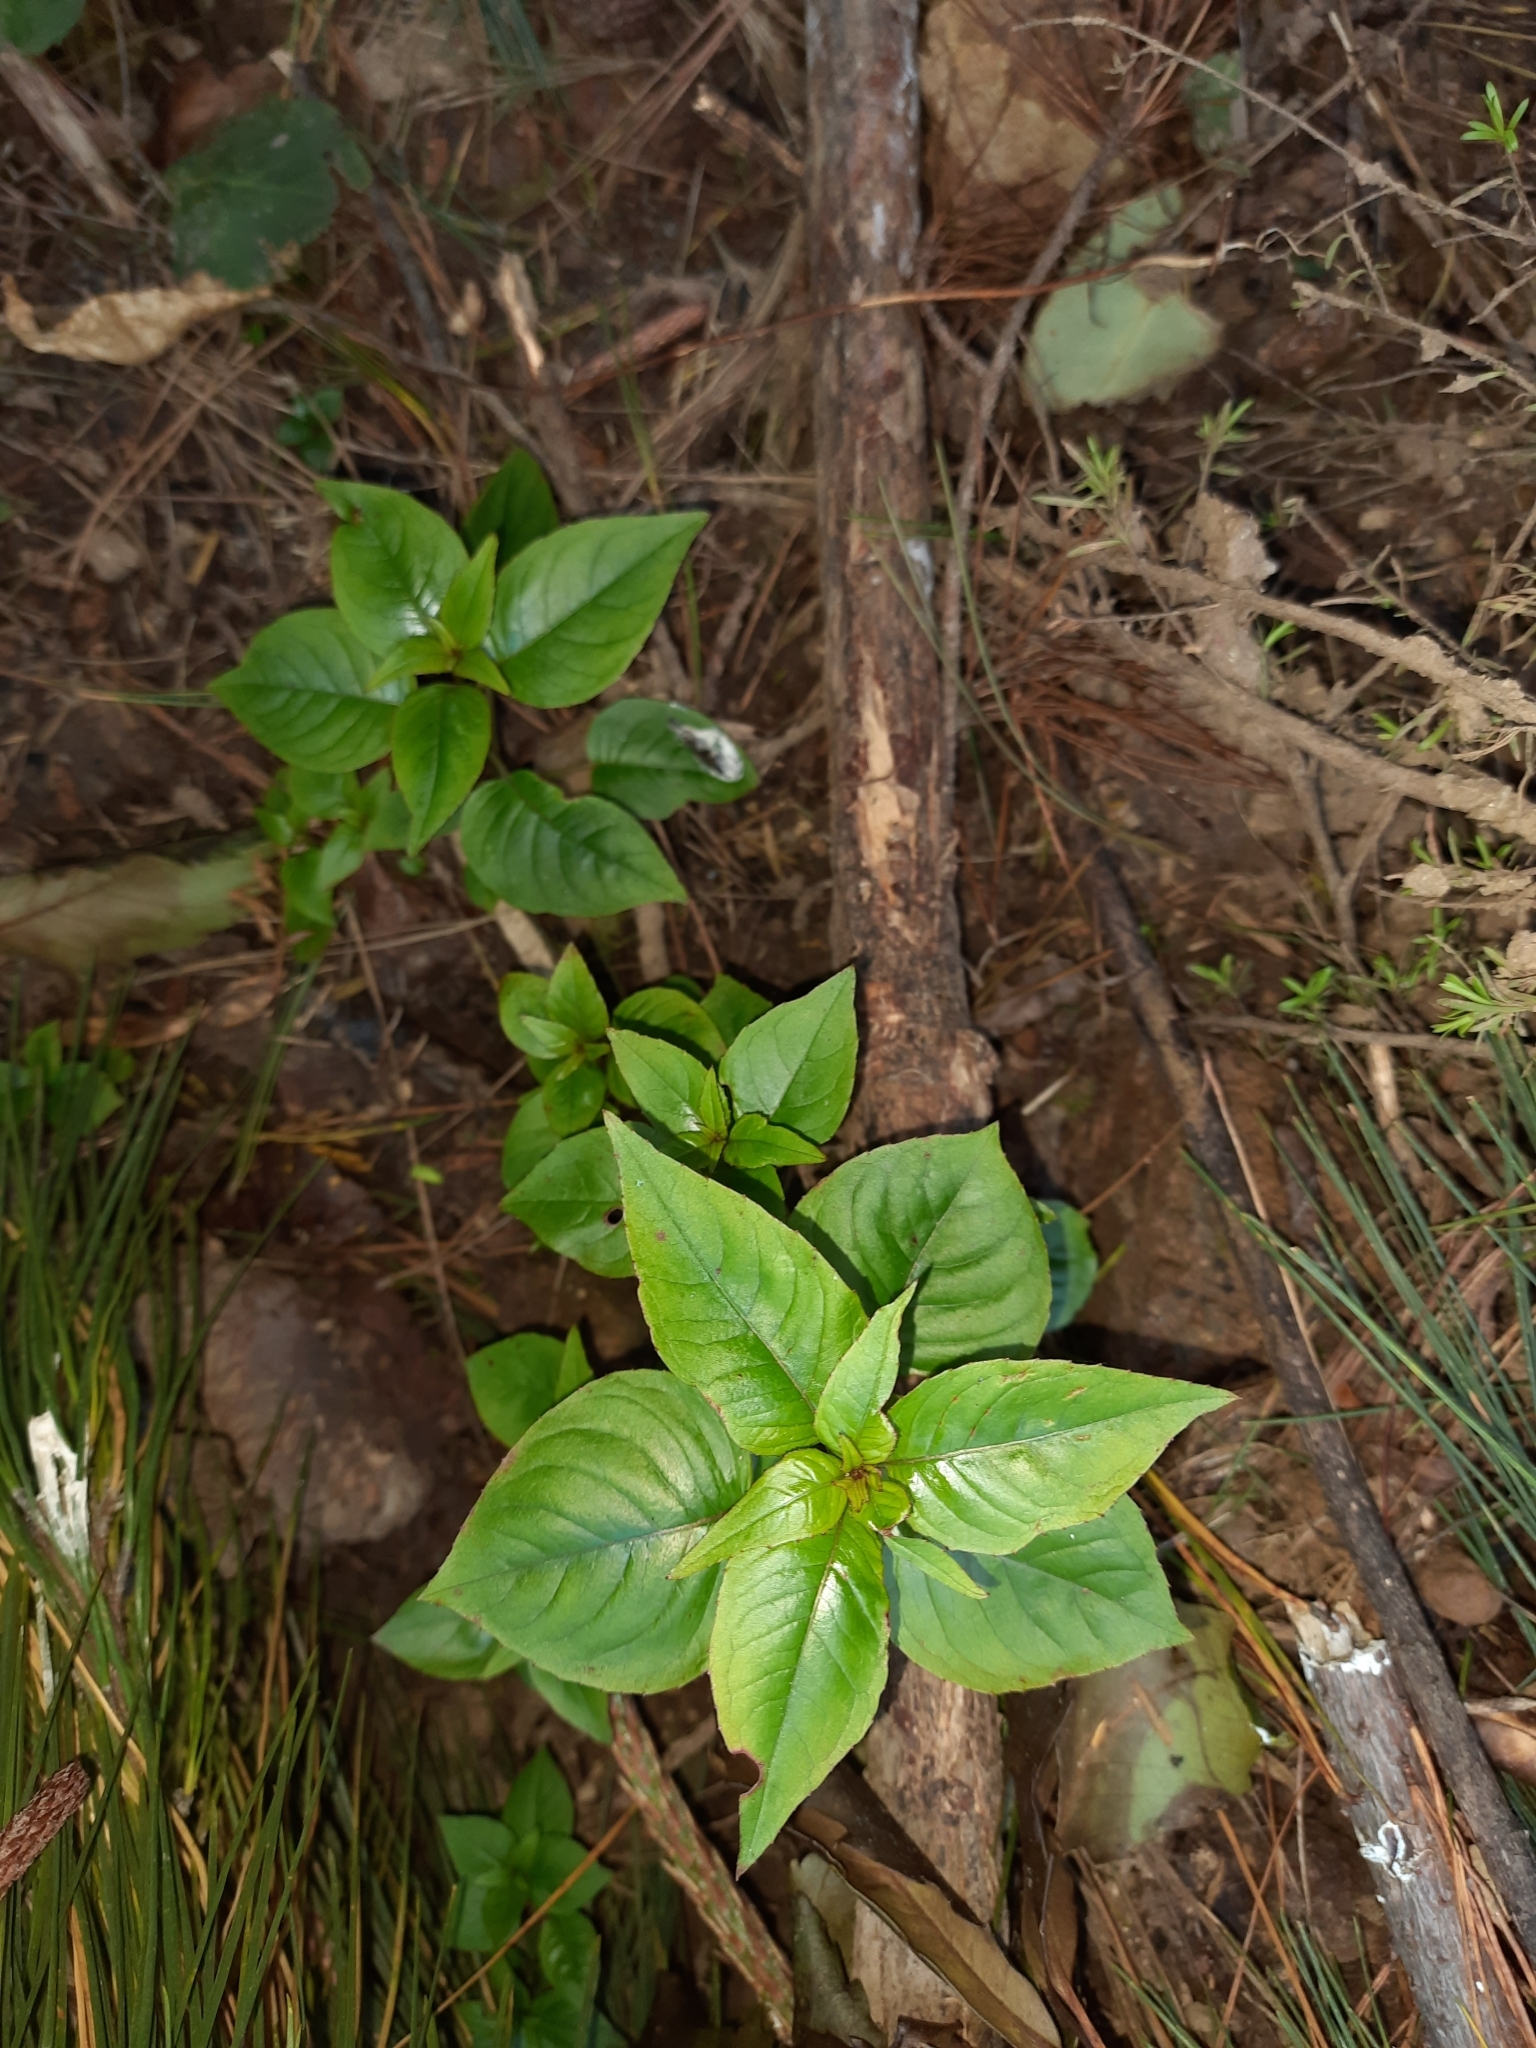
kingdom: Plantae
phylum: Tracheophyta
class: Magnoliopsida
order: Myrtales
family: Onagraceae
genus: Fuchsia
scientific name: Fuchsia excorticata
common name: Tree fuchsia
